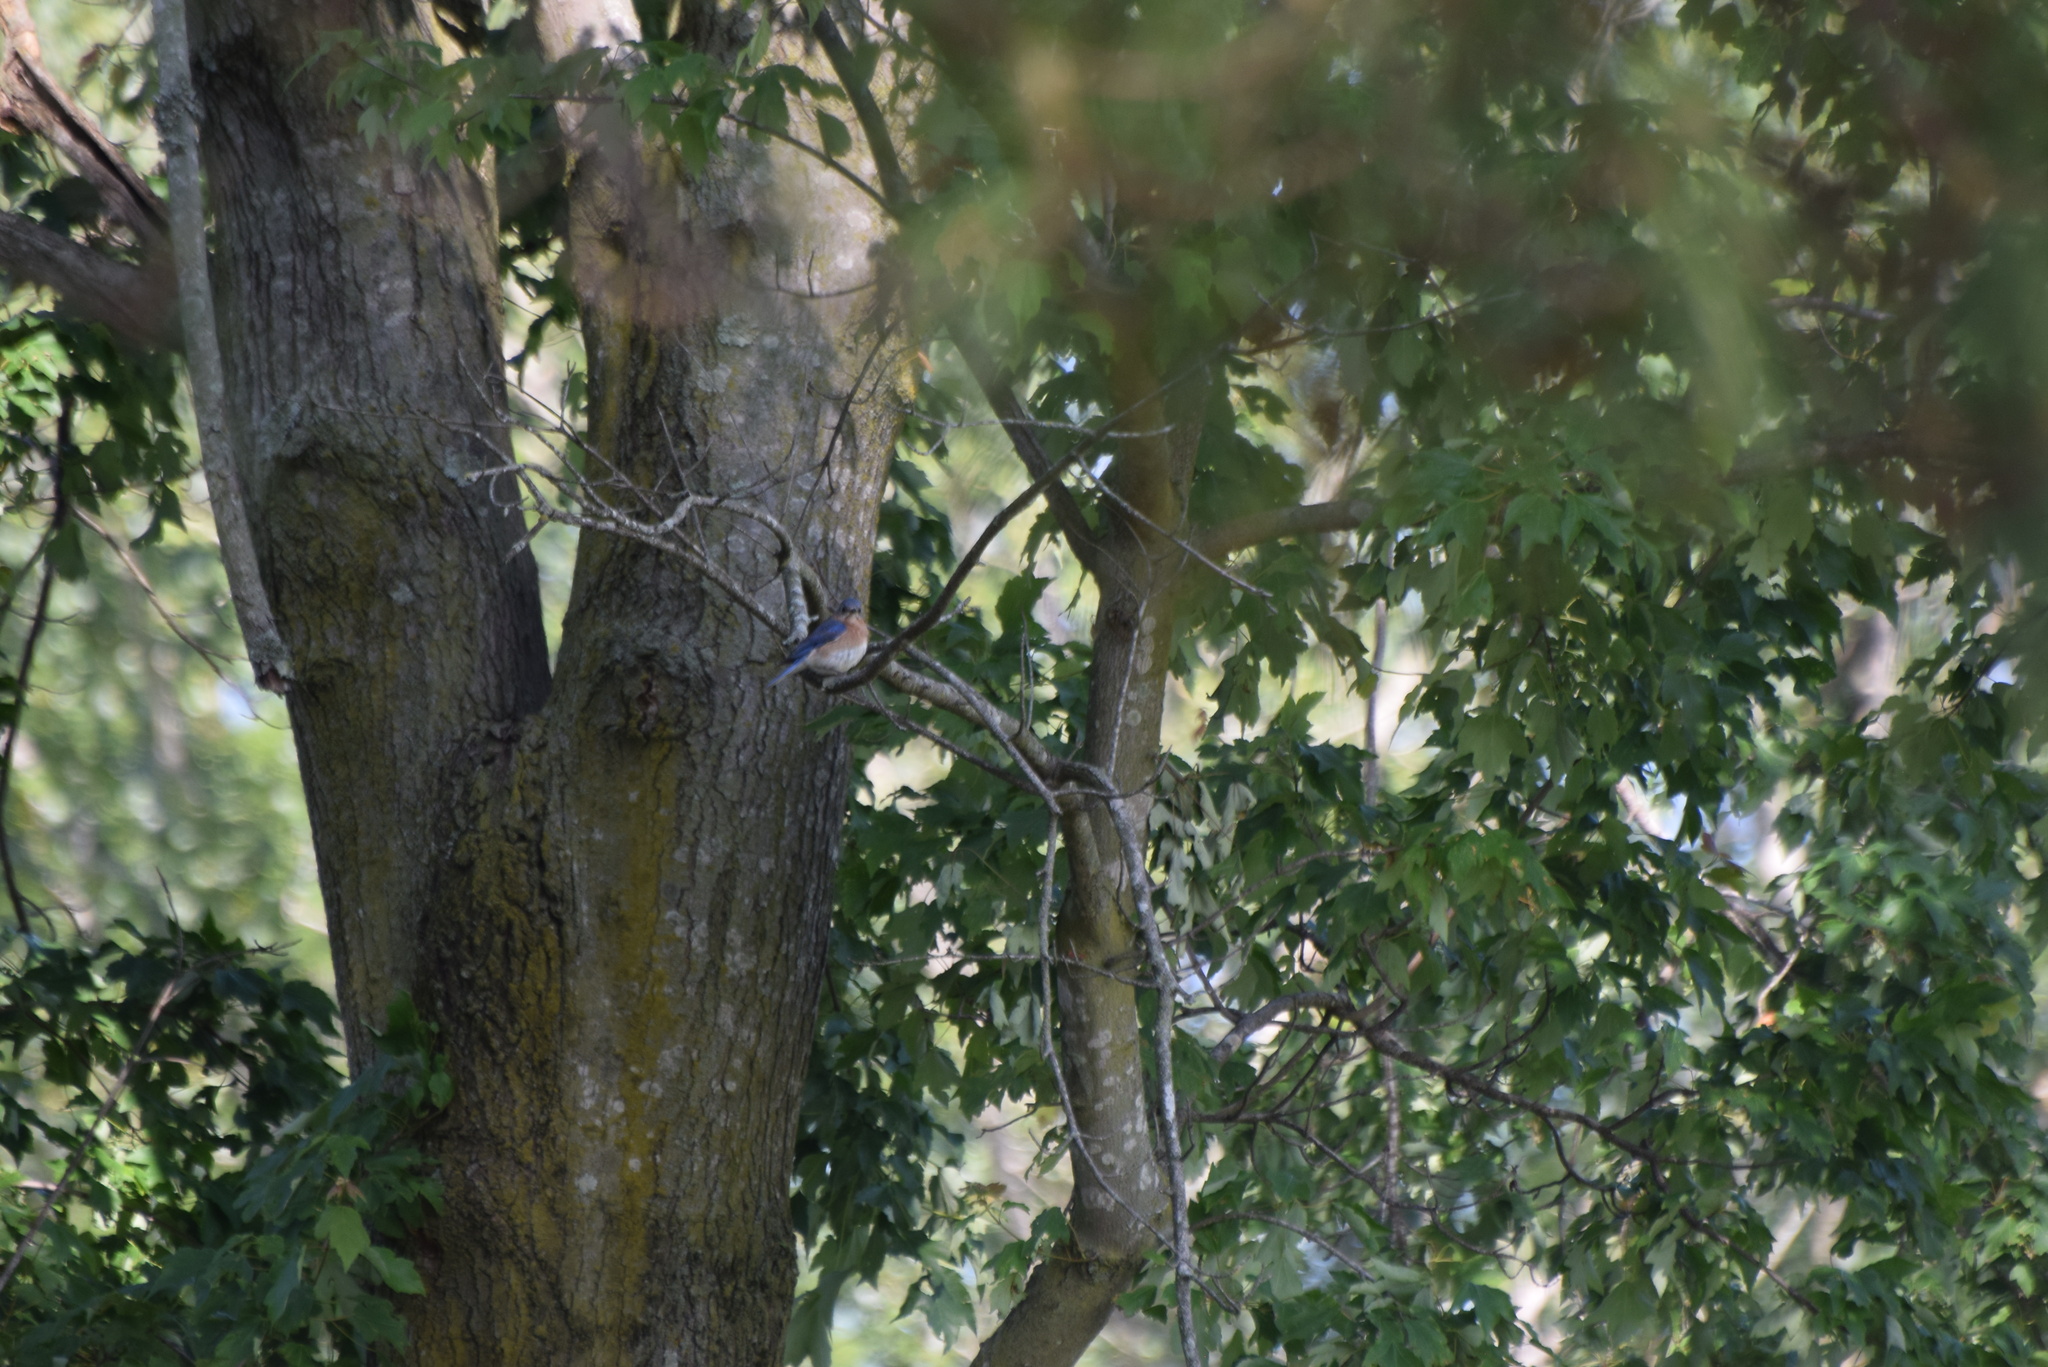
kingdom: Animalia
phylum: Chordata
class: Aves
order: Passeriformes
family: Turdidae
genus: Sialia
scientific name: Sialia sialis
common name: Eastern bluebird
